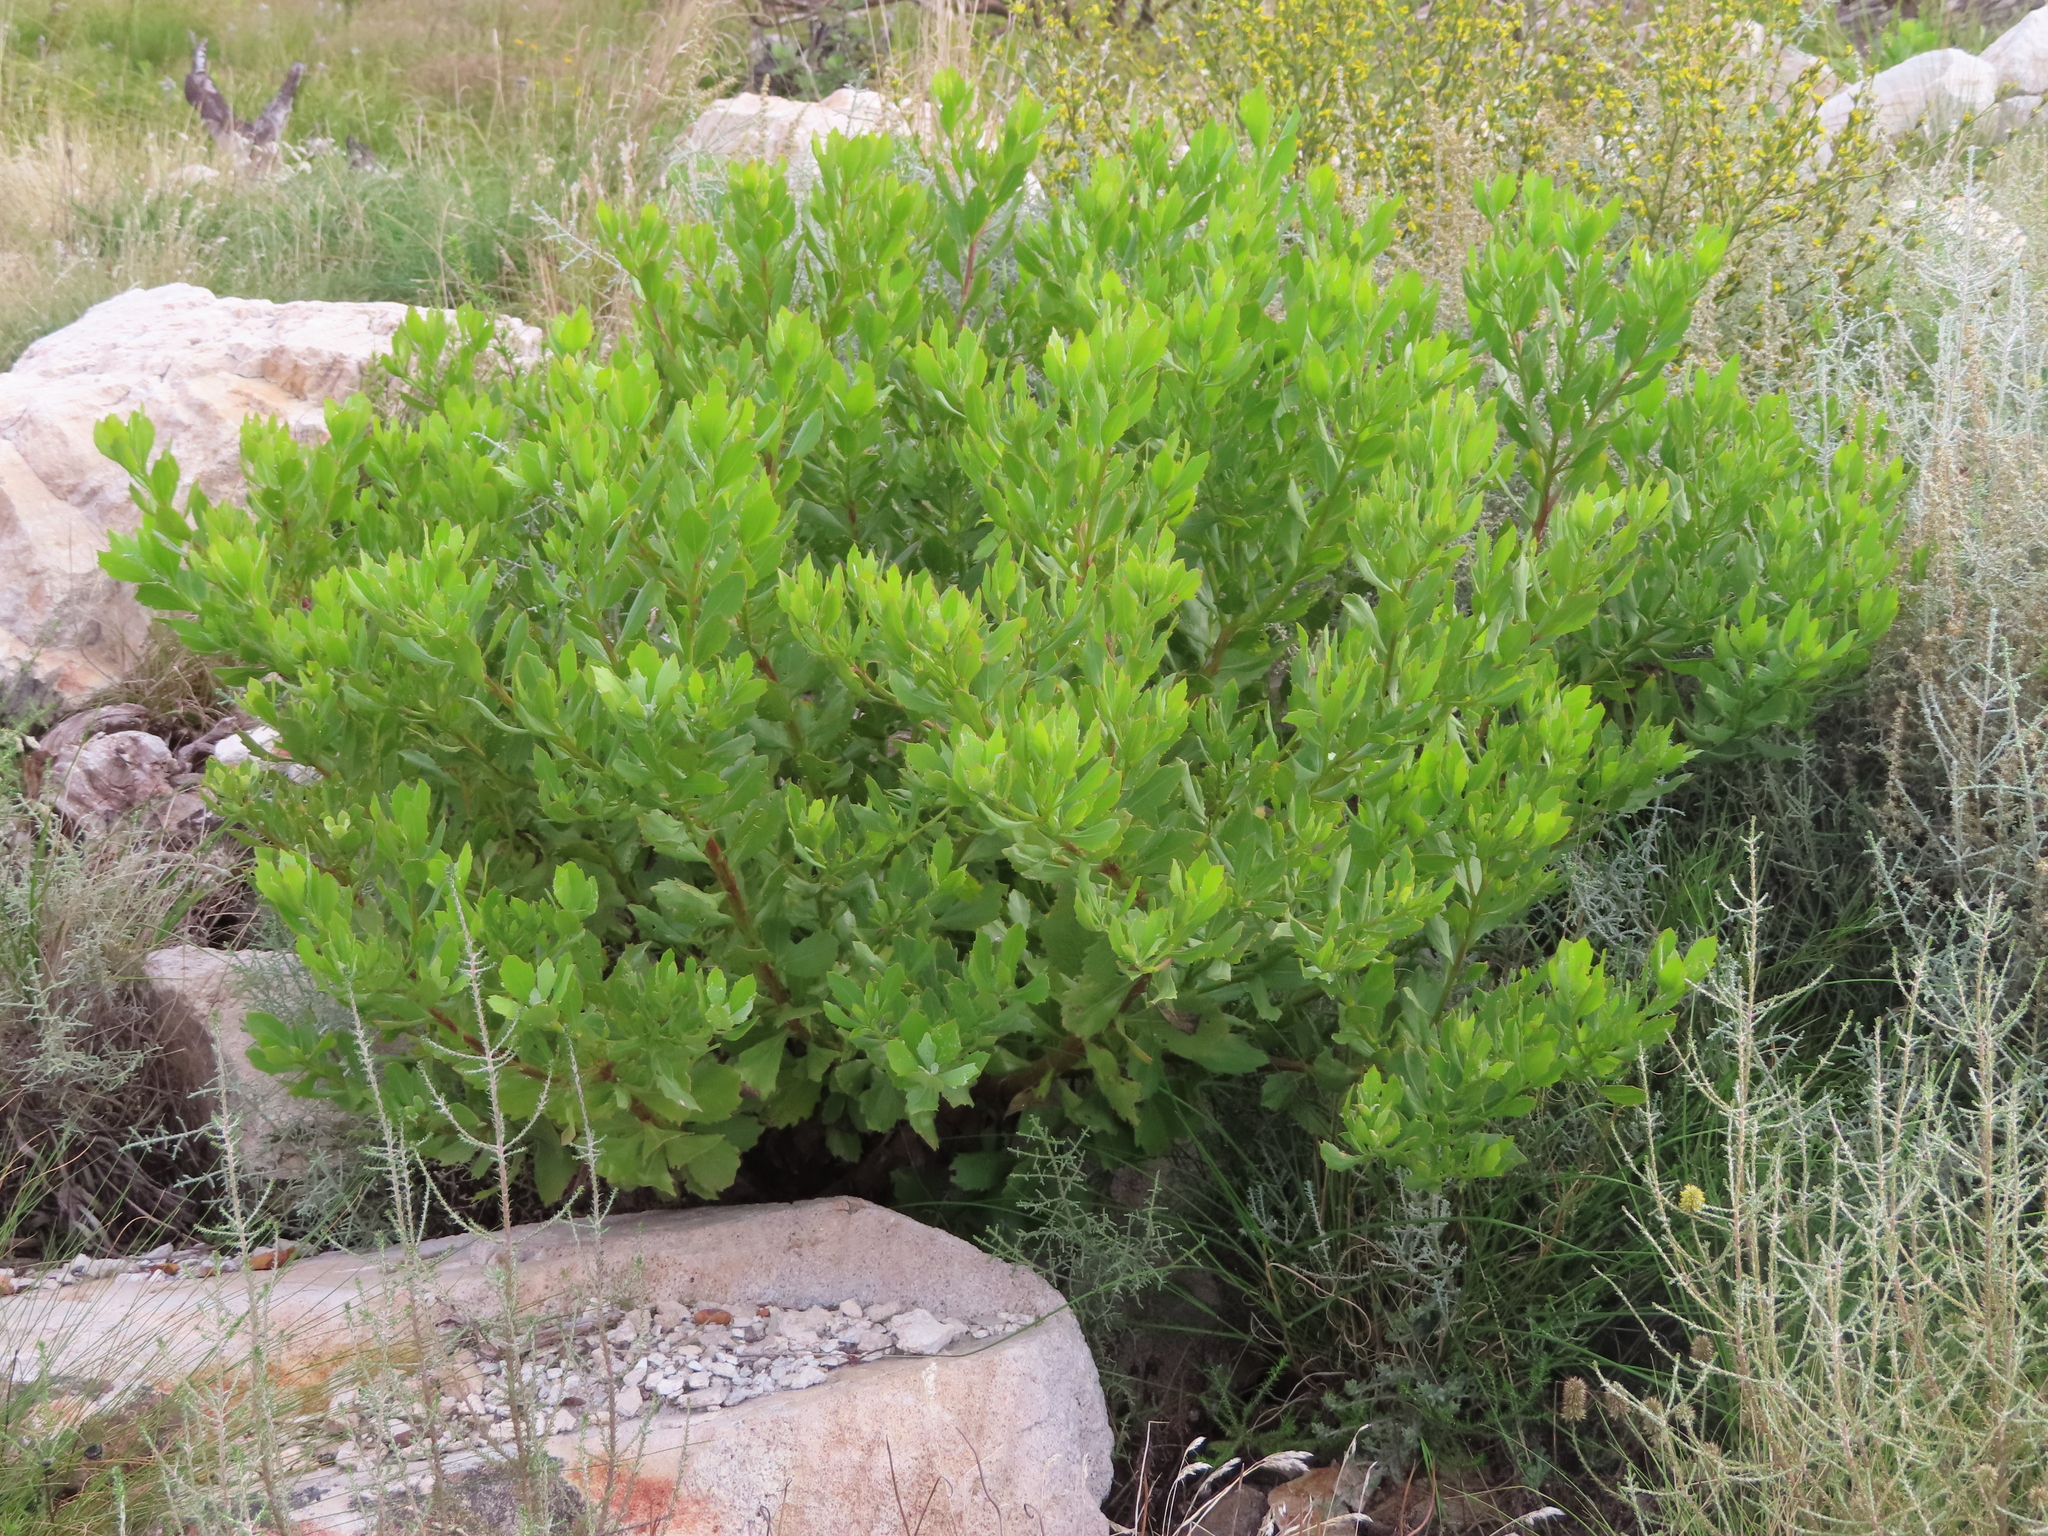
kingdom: Plantae
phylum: Tracheophyta
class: Magnoliopsida
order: Asterales
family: Asteraceae
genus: Osteospermum
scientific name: Osteospermum moniliferum
